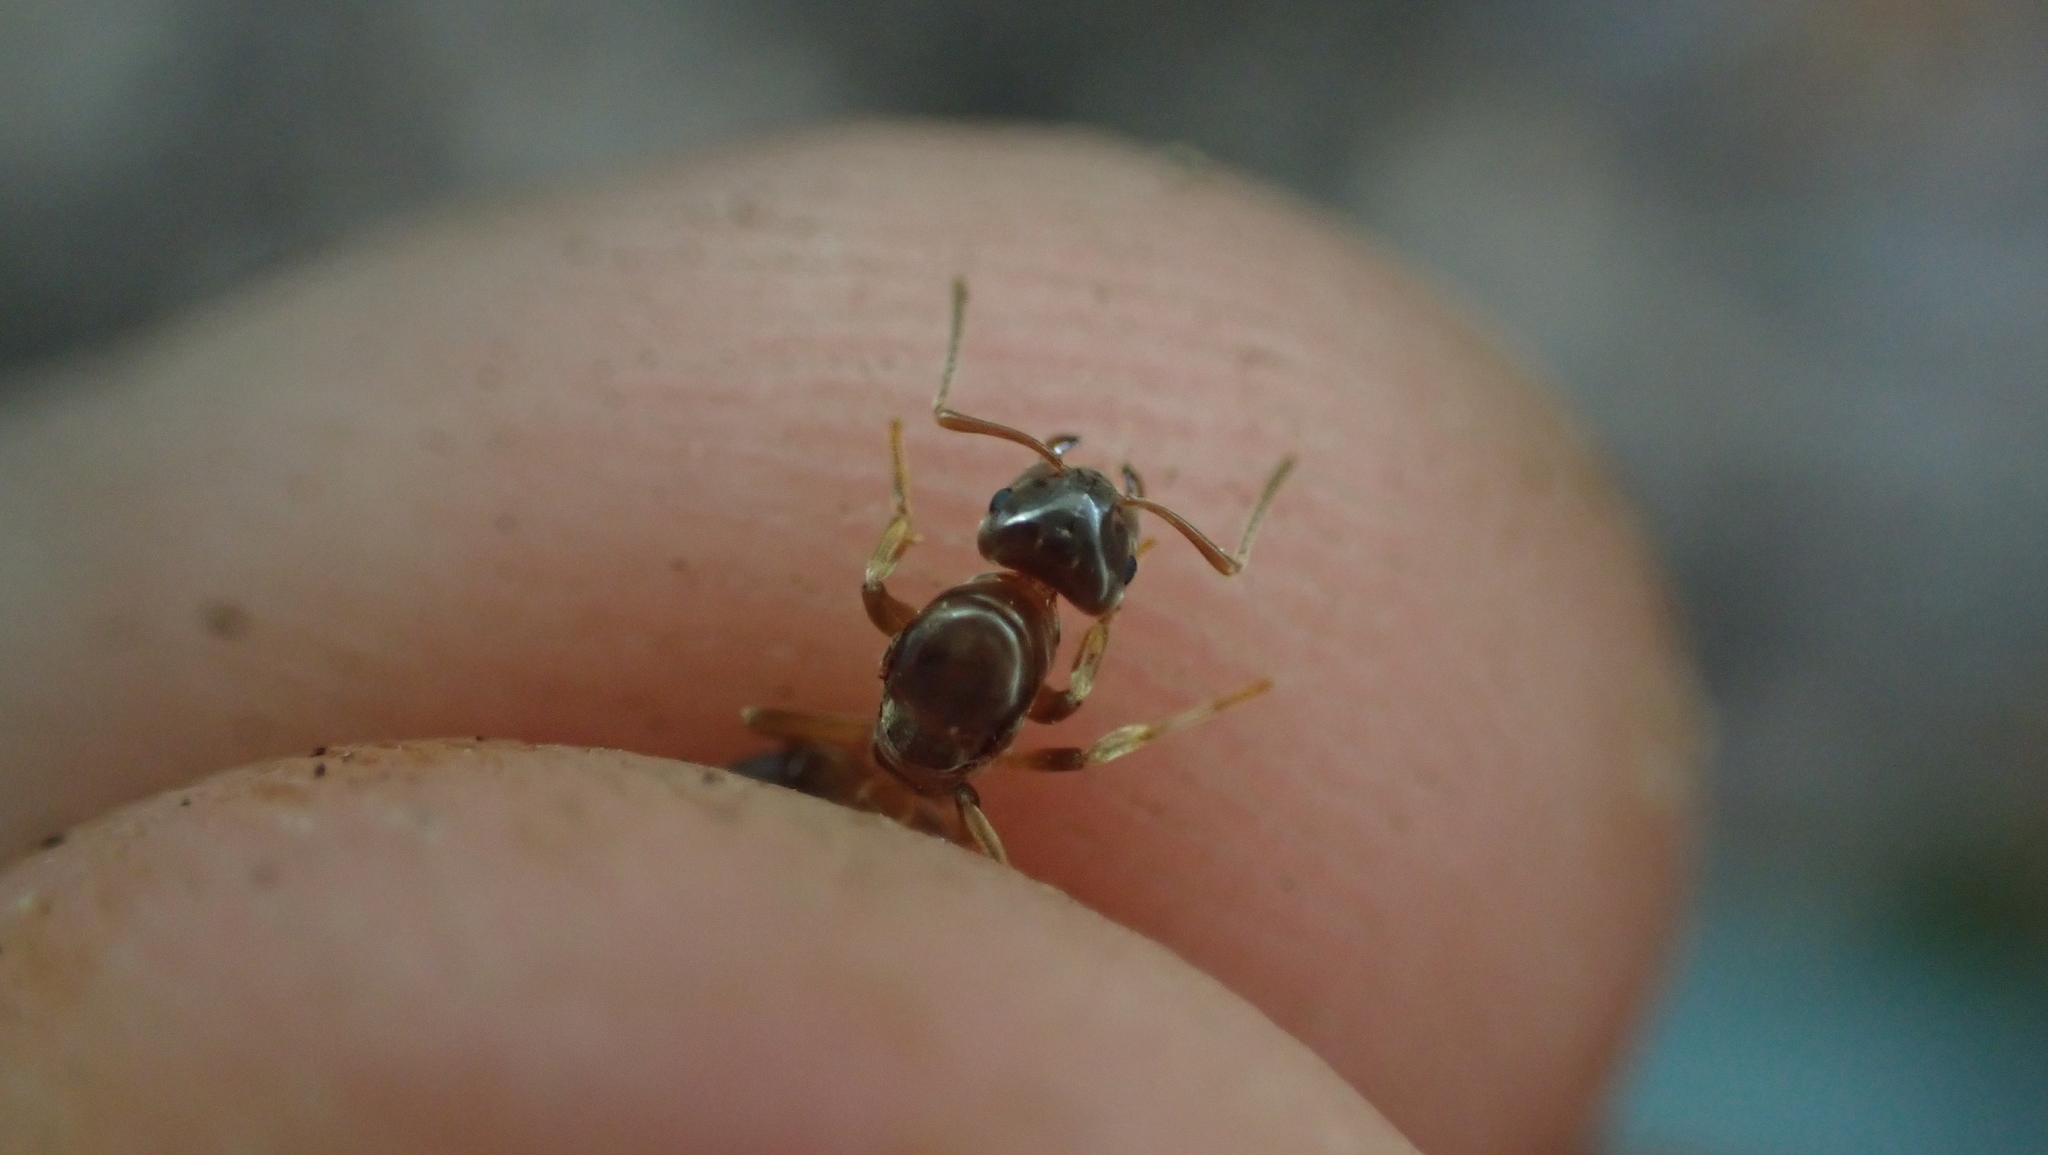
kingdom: Animalia
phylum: Arthropoda
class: Insecta
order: Hymenoptera
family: Formicidae
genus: Lasius
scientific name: Lasius aphidicola
